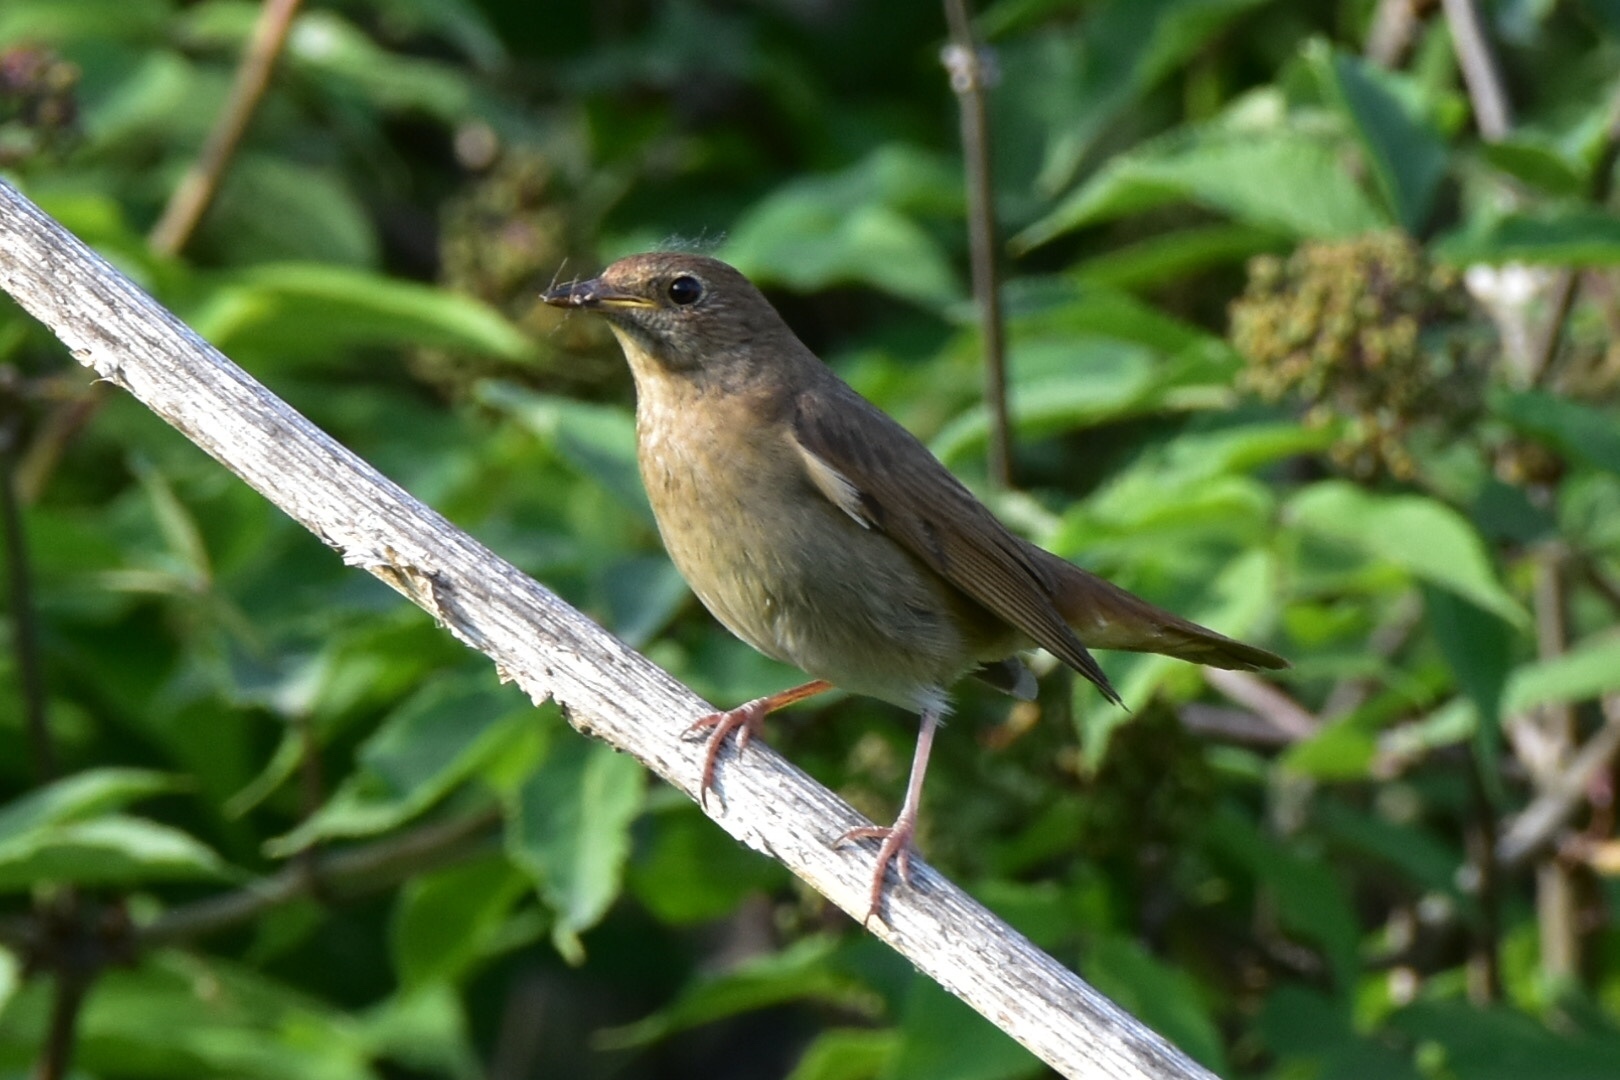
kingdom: Animalia
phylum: Chordata
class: Aves
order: Passeriformes
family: Muscicapidae
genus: Luscinia
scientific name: Luscinia luscinia
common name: Thrush nightingale
